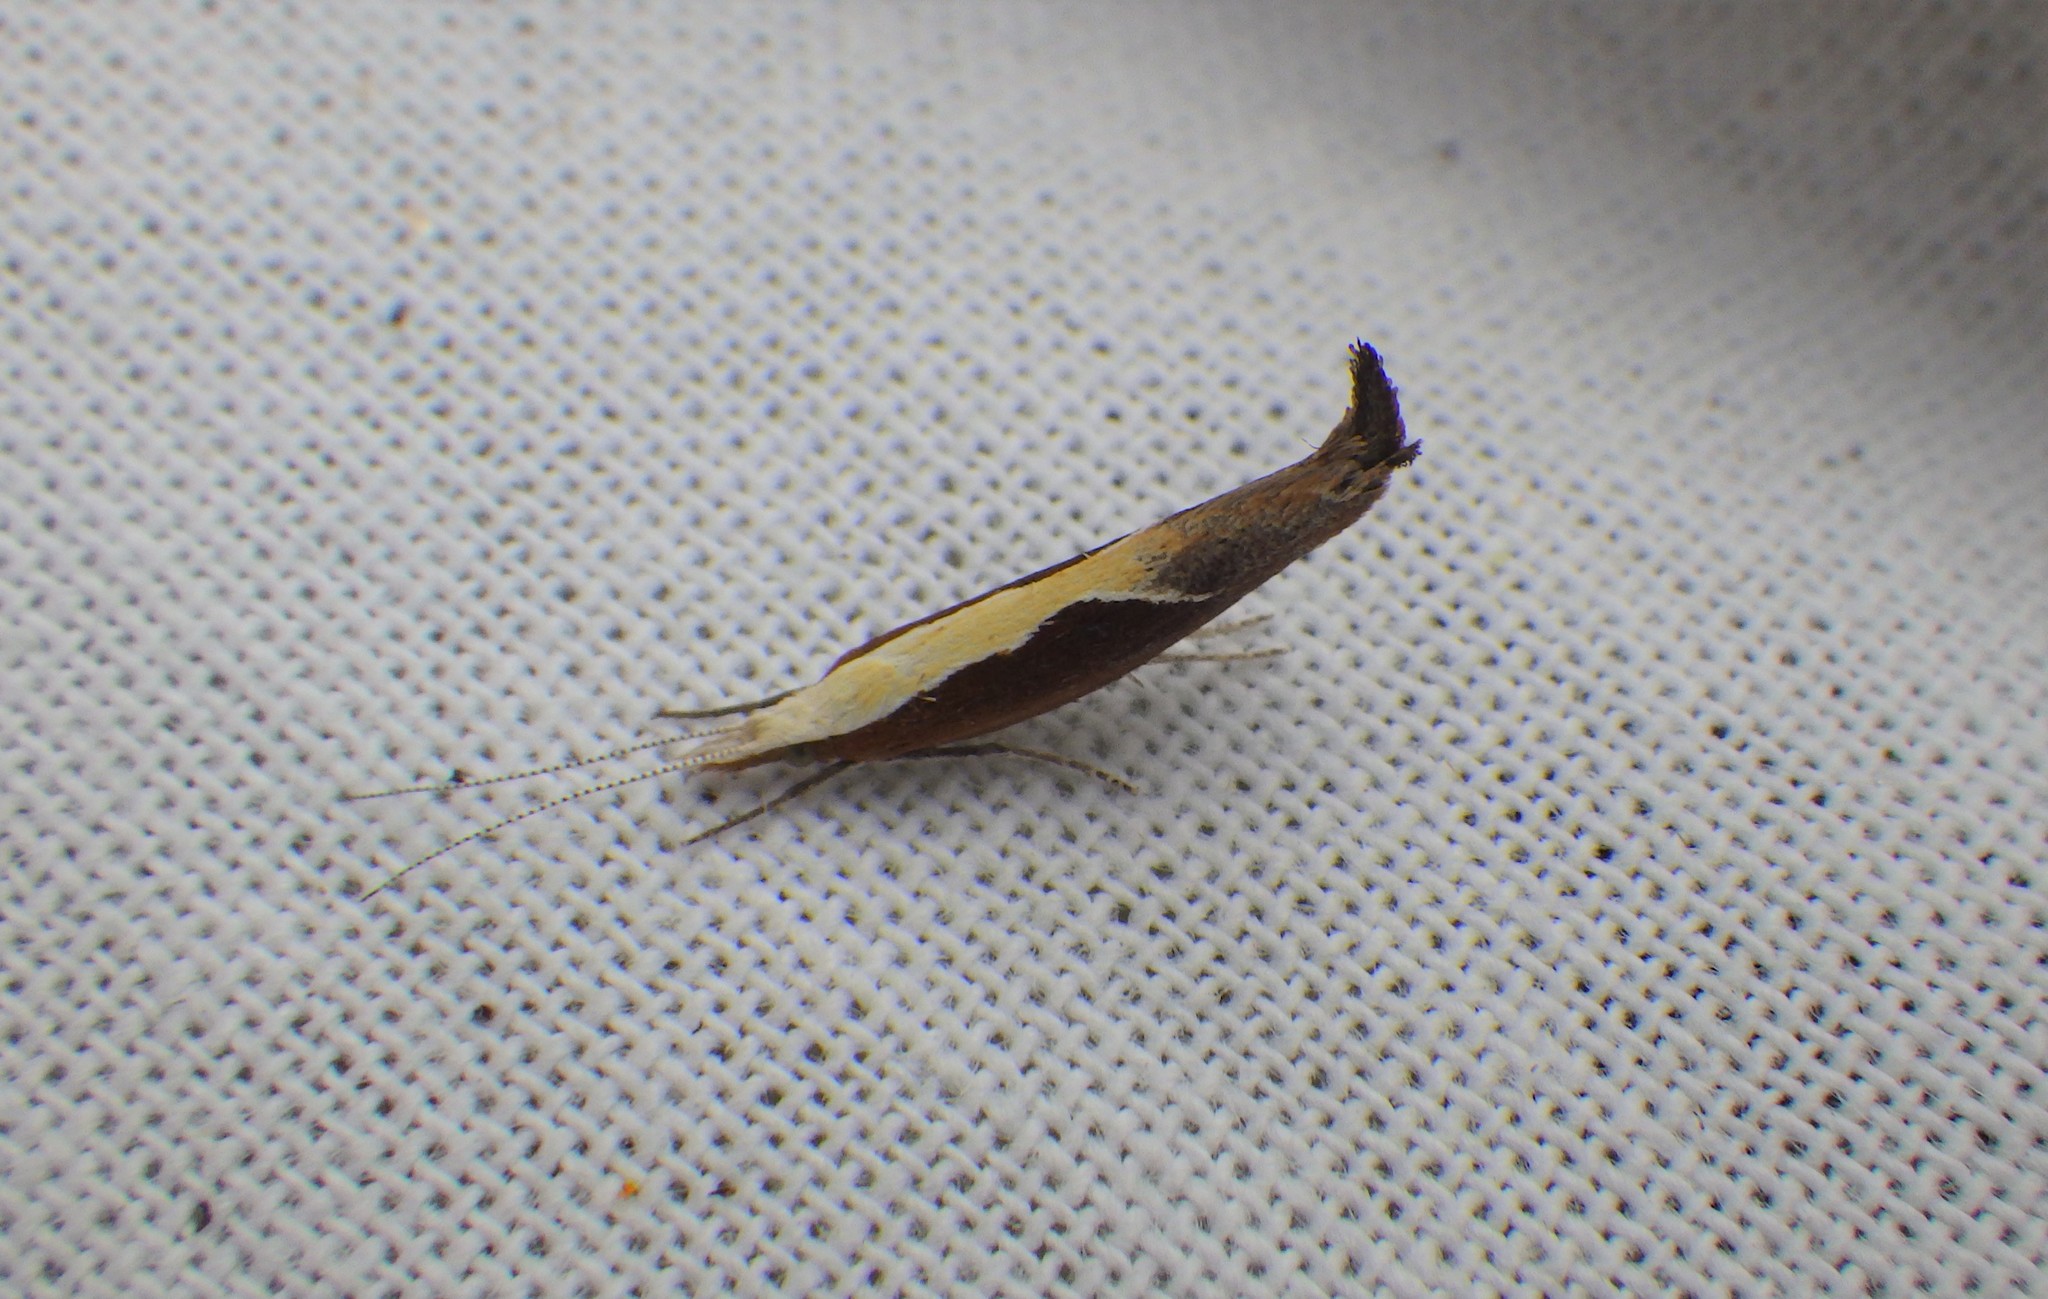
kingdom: Animalia
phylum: Arthropoda
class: Insecta
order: Lepidoptera
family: Ypsolophidae
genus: Ypsolopha
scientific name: Ypsolopha dentella
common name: Honeysuckle moth
